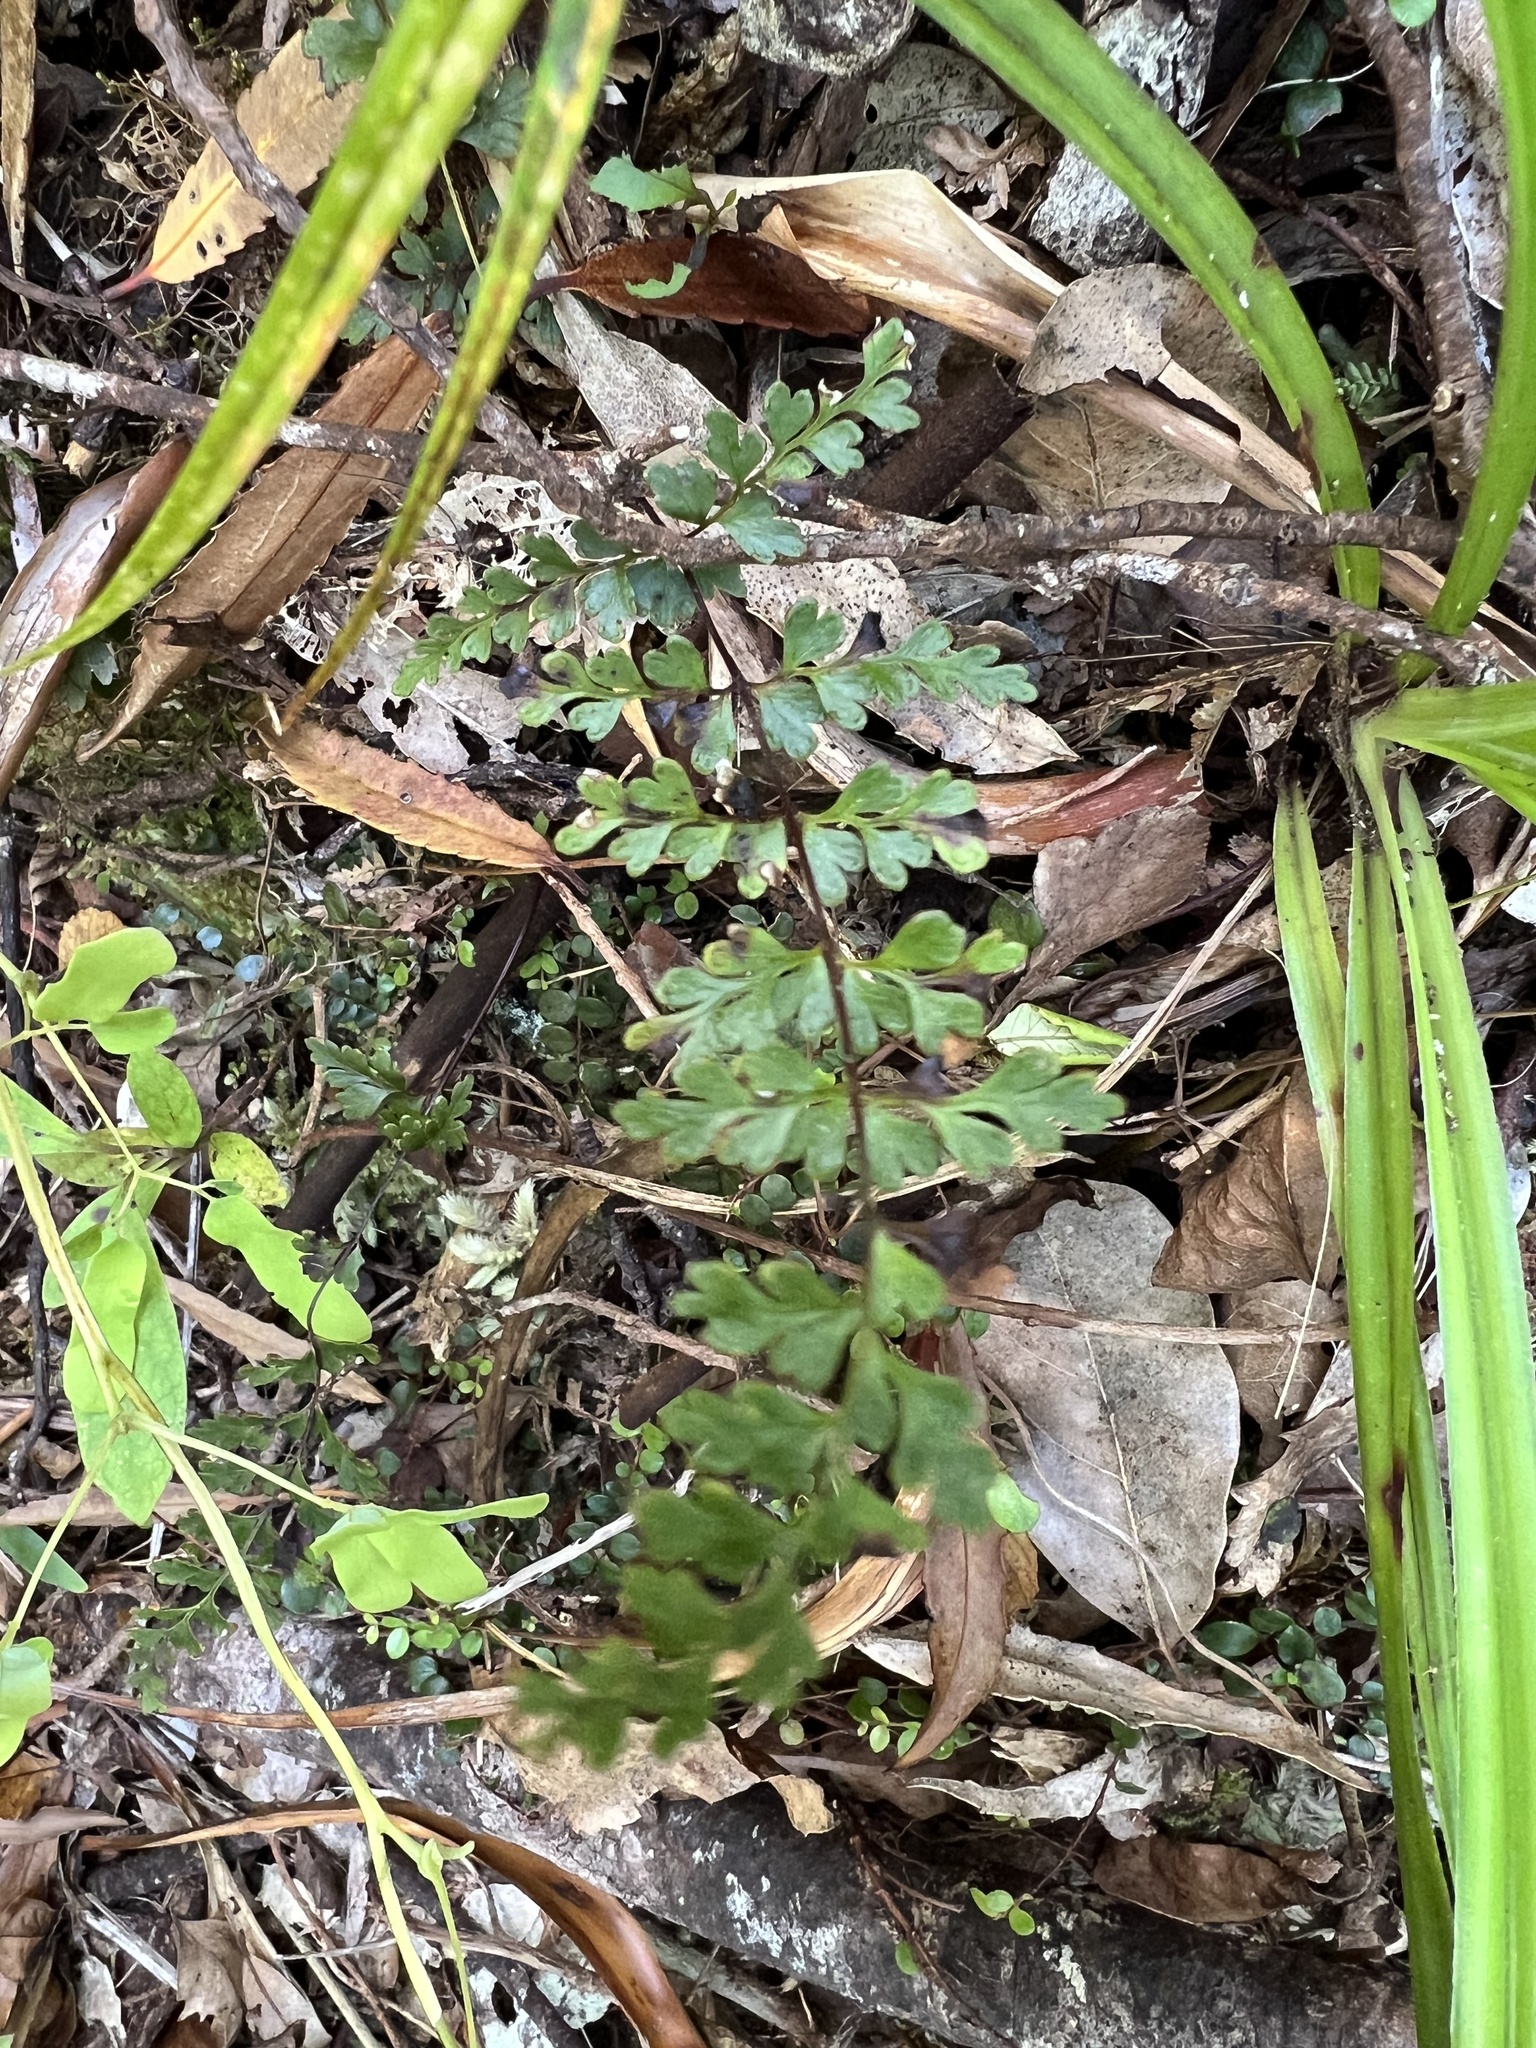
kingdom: Plantae
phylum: Tracheophyta
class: Polypodiopsida
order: Polypodiales
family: Lindsaeaceae
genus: Lindsaea
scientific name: Lindsaea trichomanoides
